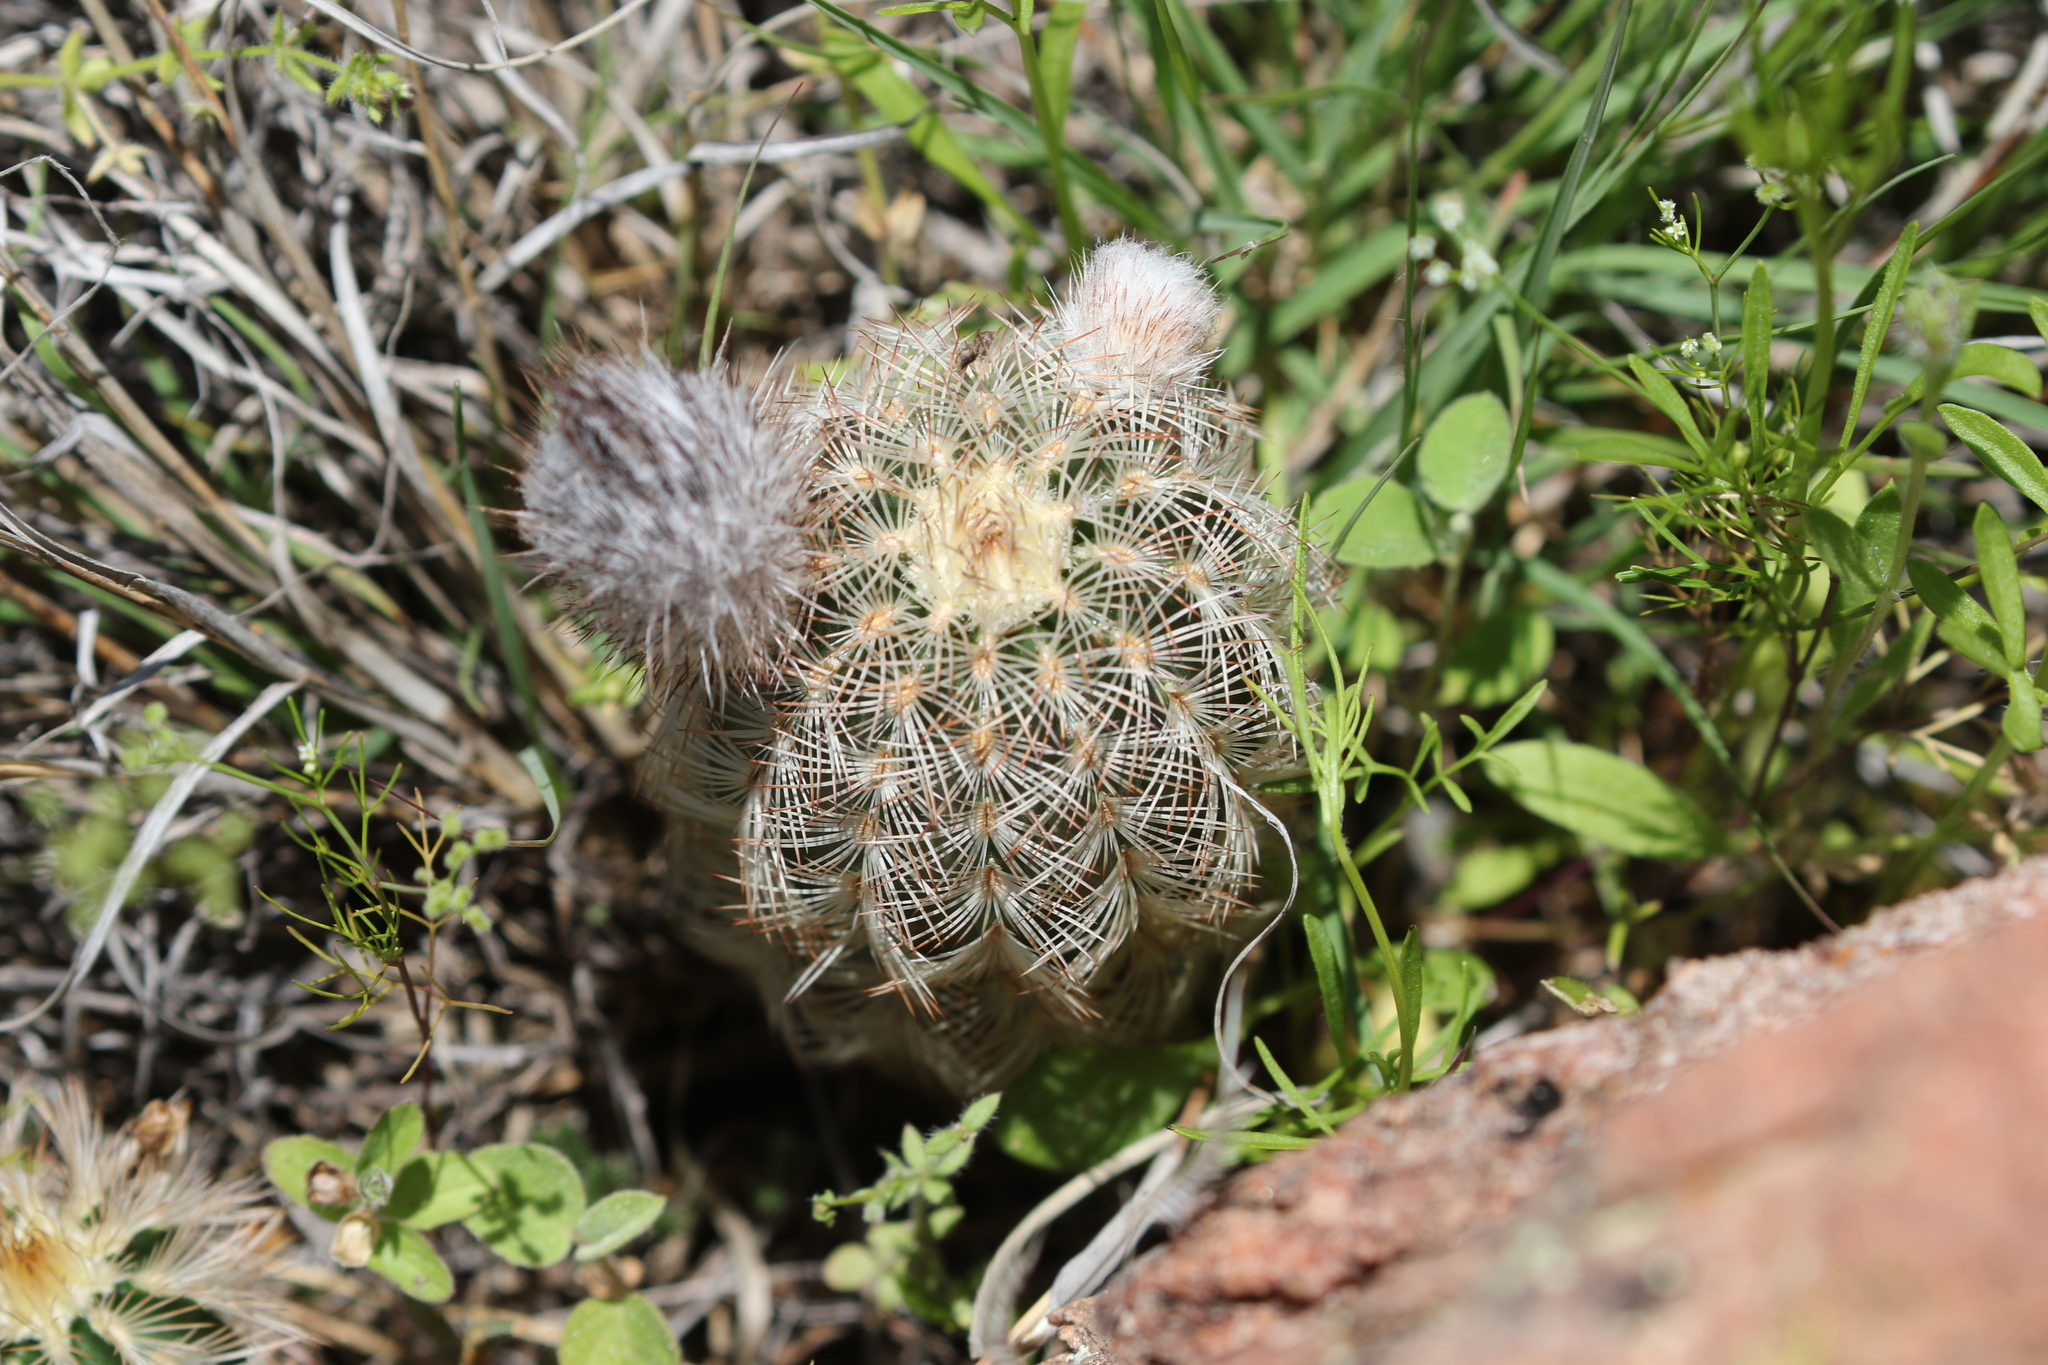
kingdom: Plantae
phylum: Tracheophyta
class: Magnoliopsida
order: Caryophyllales
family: Cactaceae
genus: Echinocereus
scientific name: Echinocereus reichenbachii
